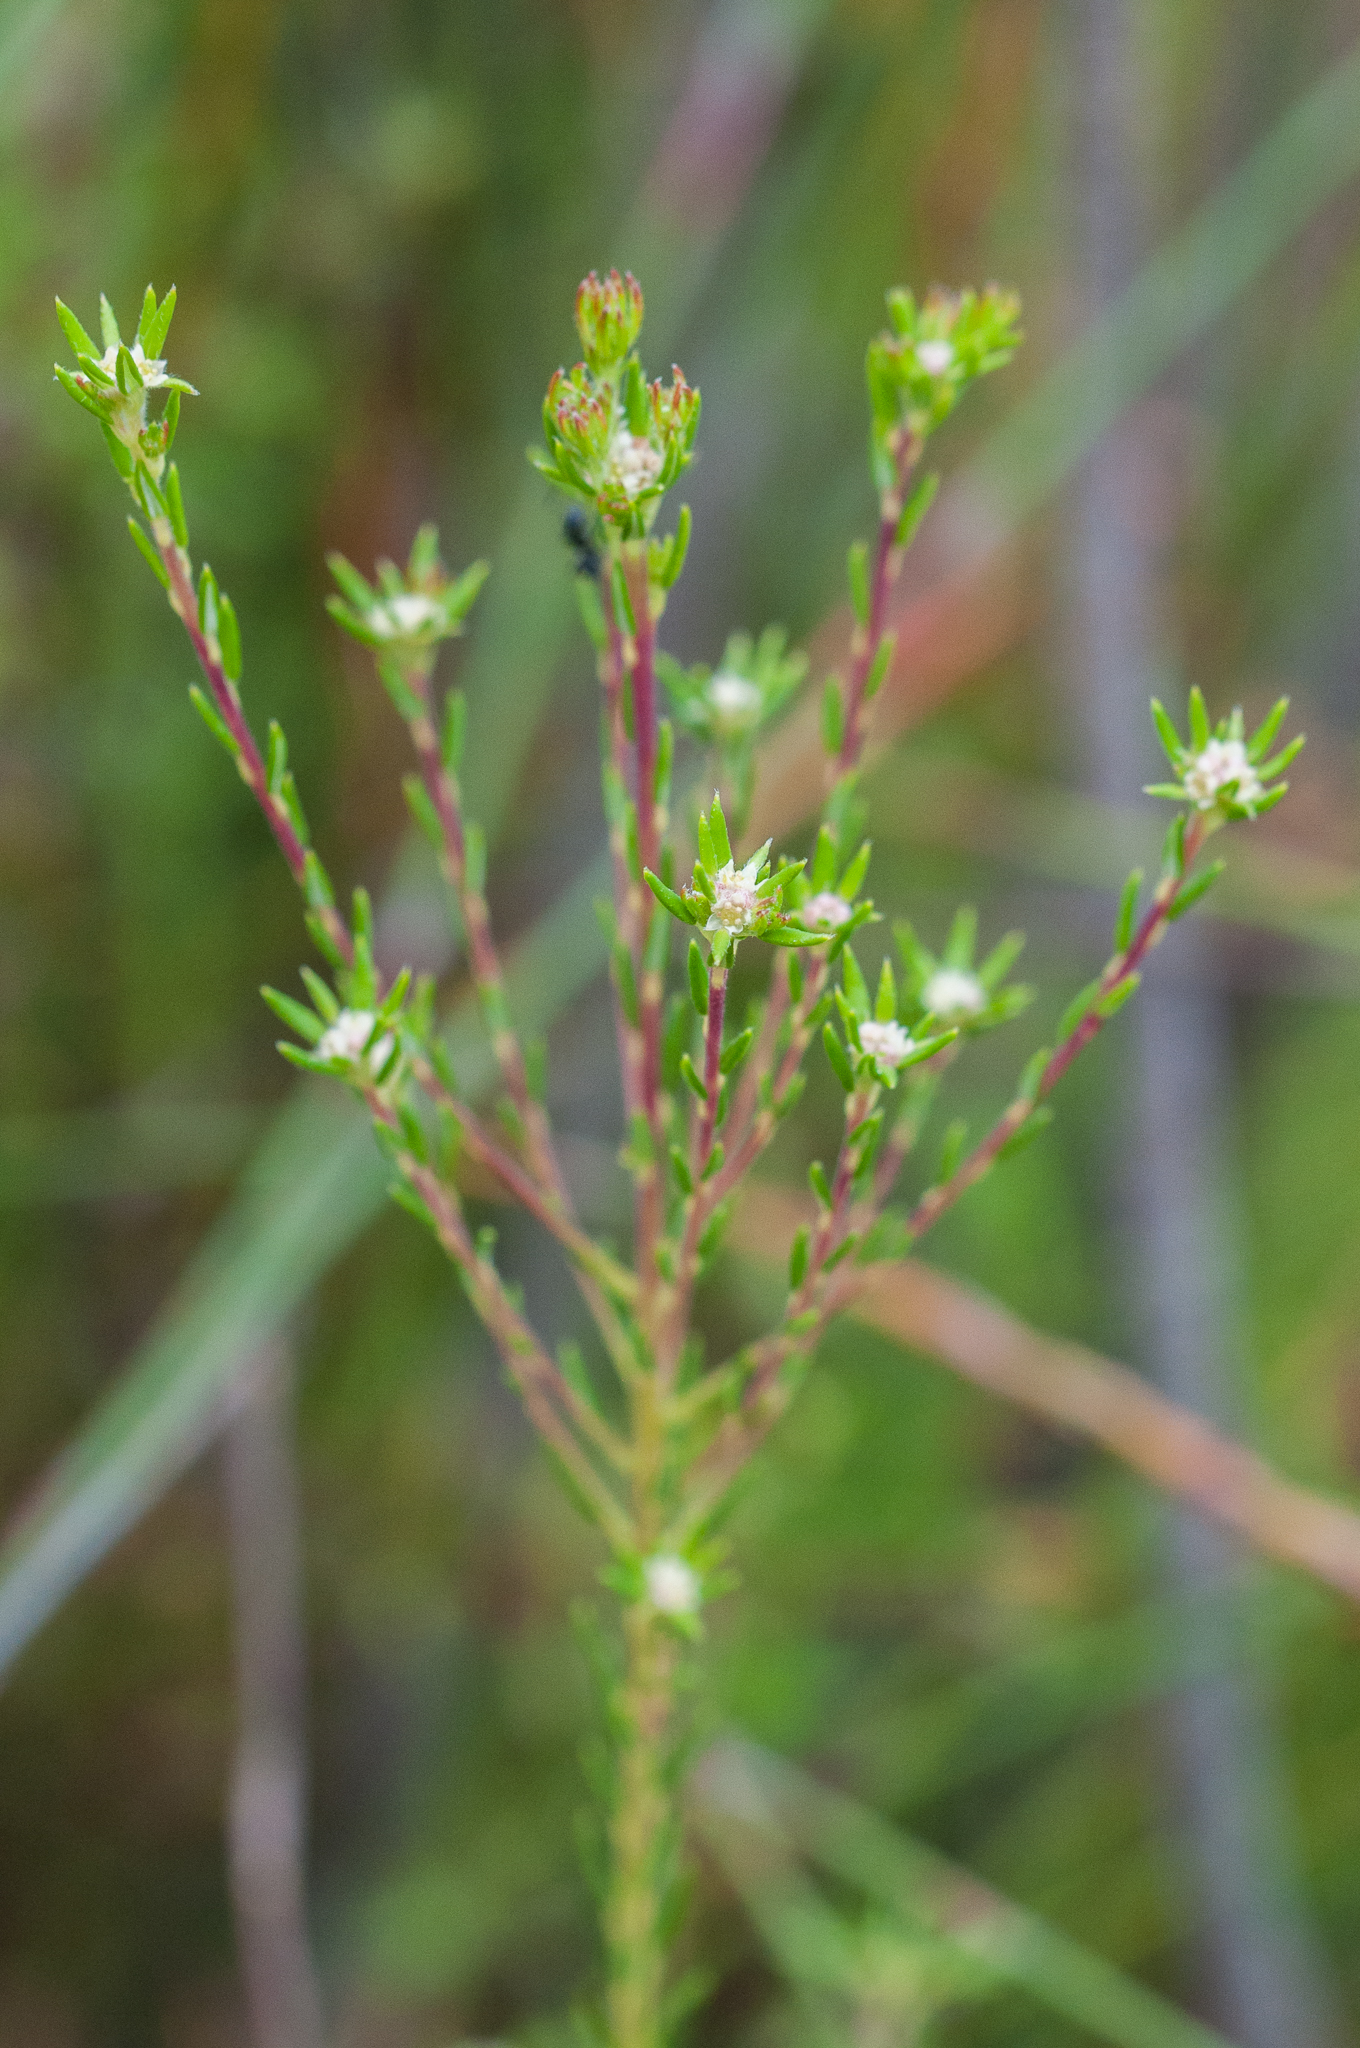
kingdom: Plantae
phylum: Tracheophyta
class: Magnoliopsida
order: Rosales
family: Rhamnaceae
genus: Phylica
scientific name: Phylica minutiflora
